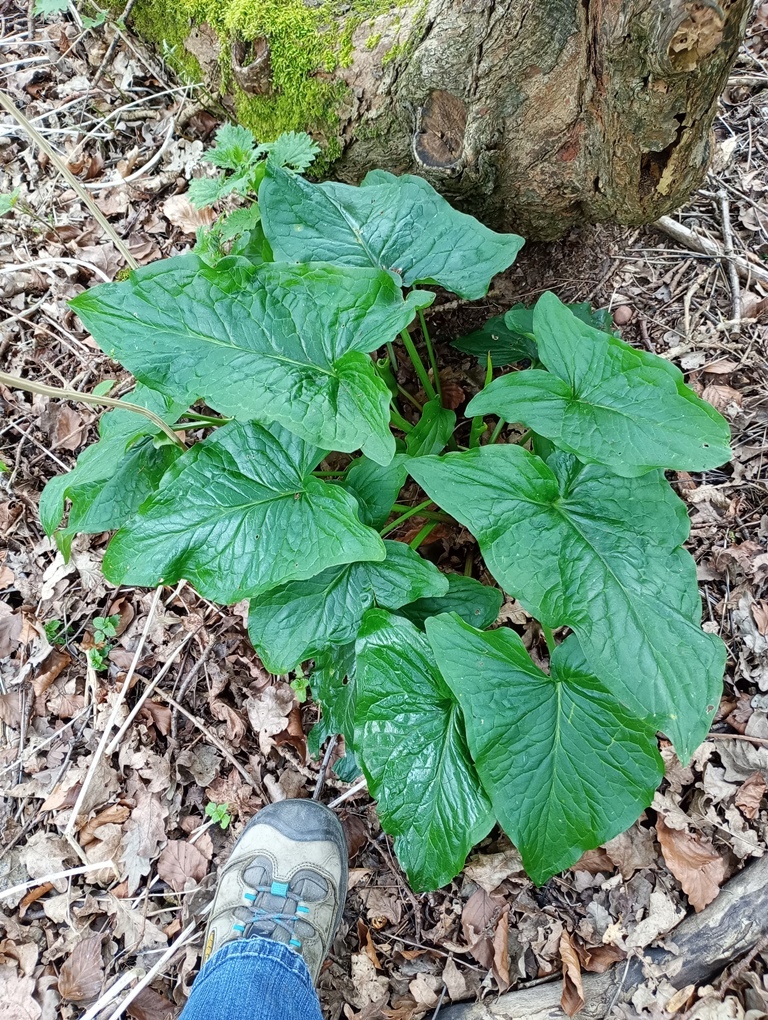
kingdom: Plantae
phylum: Tracheophyta
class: Liliopsida
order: Alismatales
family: Araceae
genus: Arum
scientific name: Arum maculatum
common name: Lords-and-ladies
